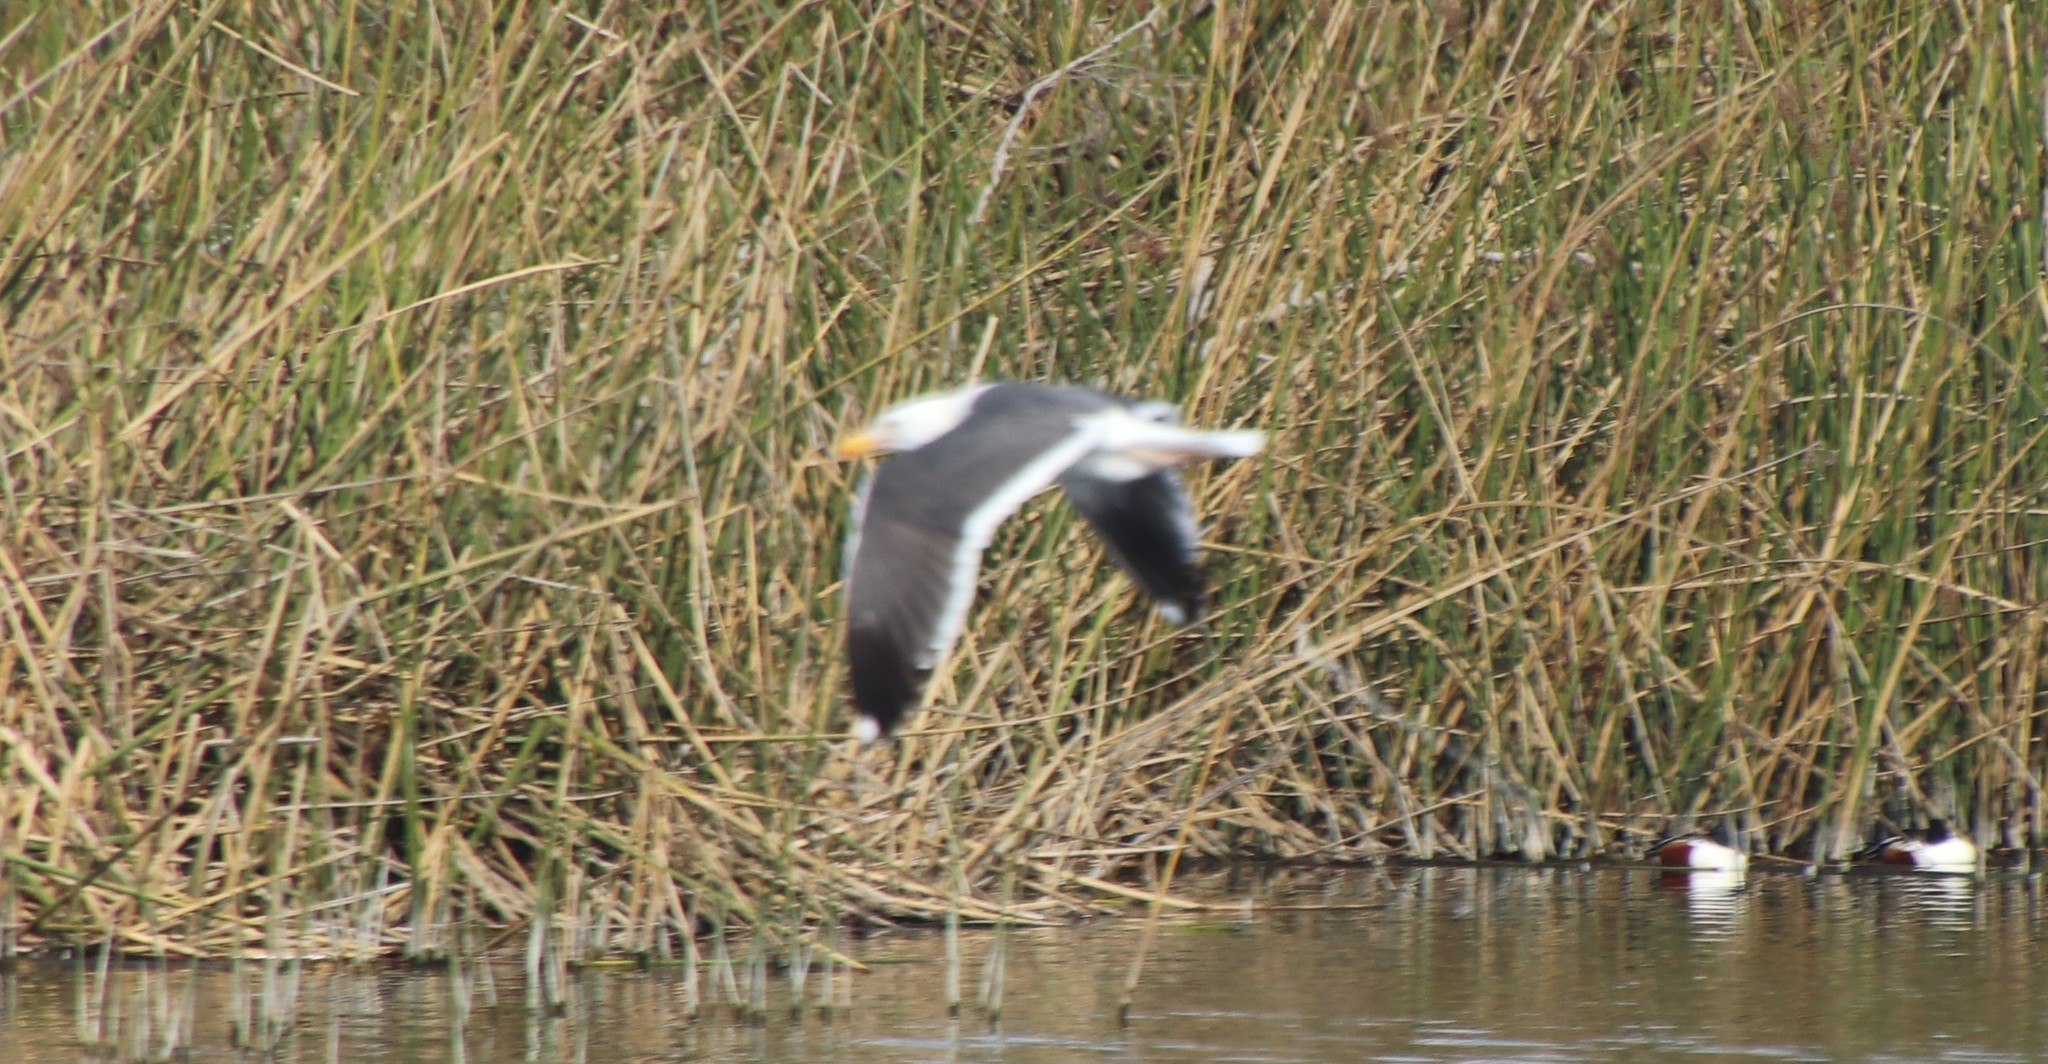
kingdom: Animalia
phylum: Chordata
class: Aves
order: Charadriiformes
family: Laridae
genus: Larus
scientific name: Larus occidentalis
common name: Western gull
